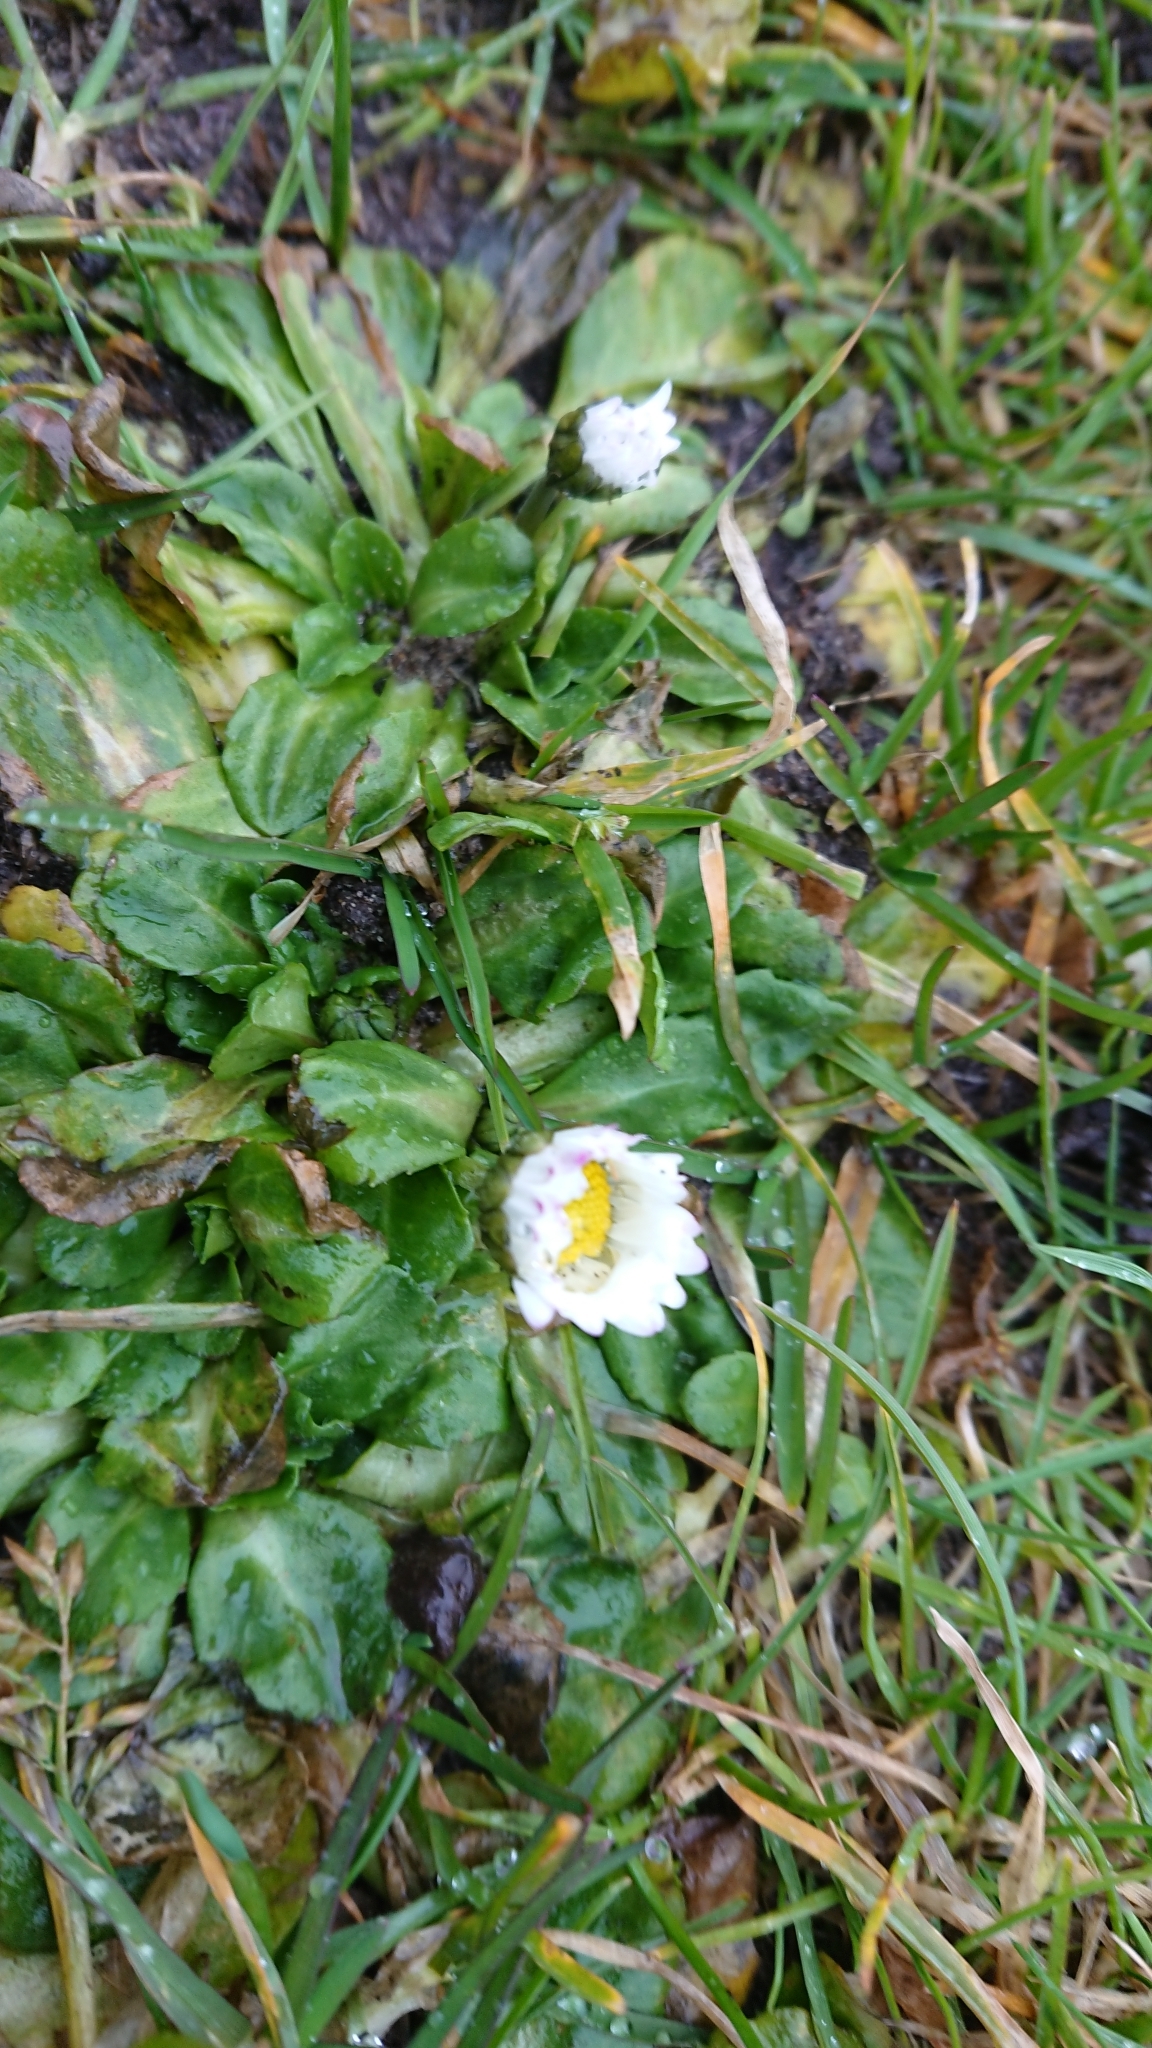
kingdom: Plantae
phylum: Tracheophyta
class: Magnoliopsida
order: Asterales
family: Asteraceae
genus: Bellis
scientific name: Bellis perennis
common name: Lawndaisy
